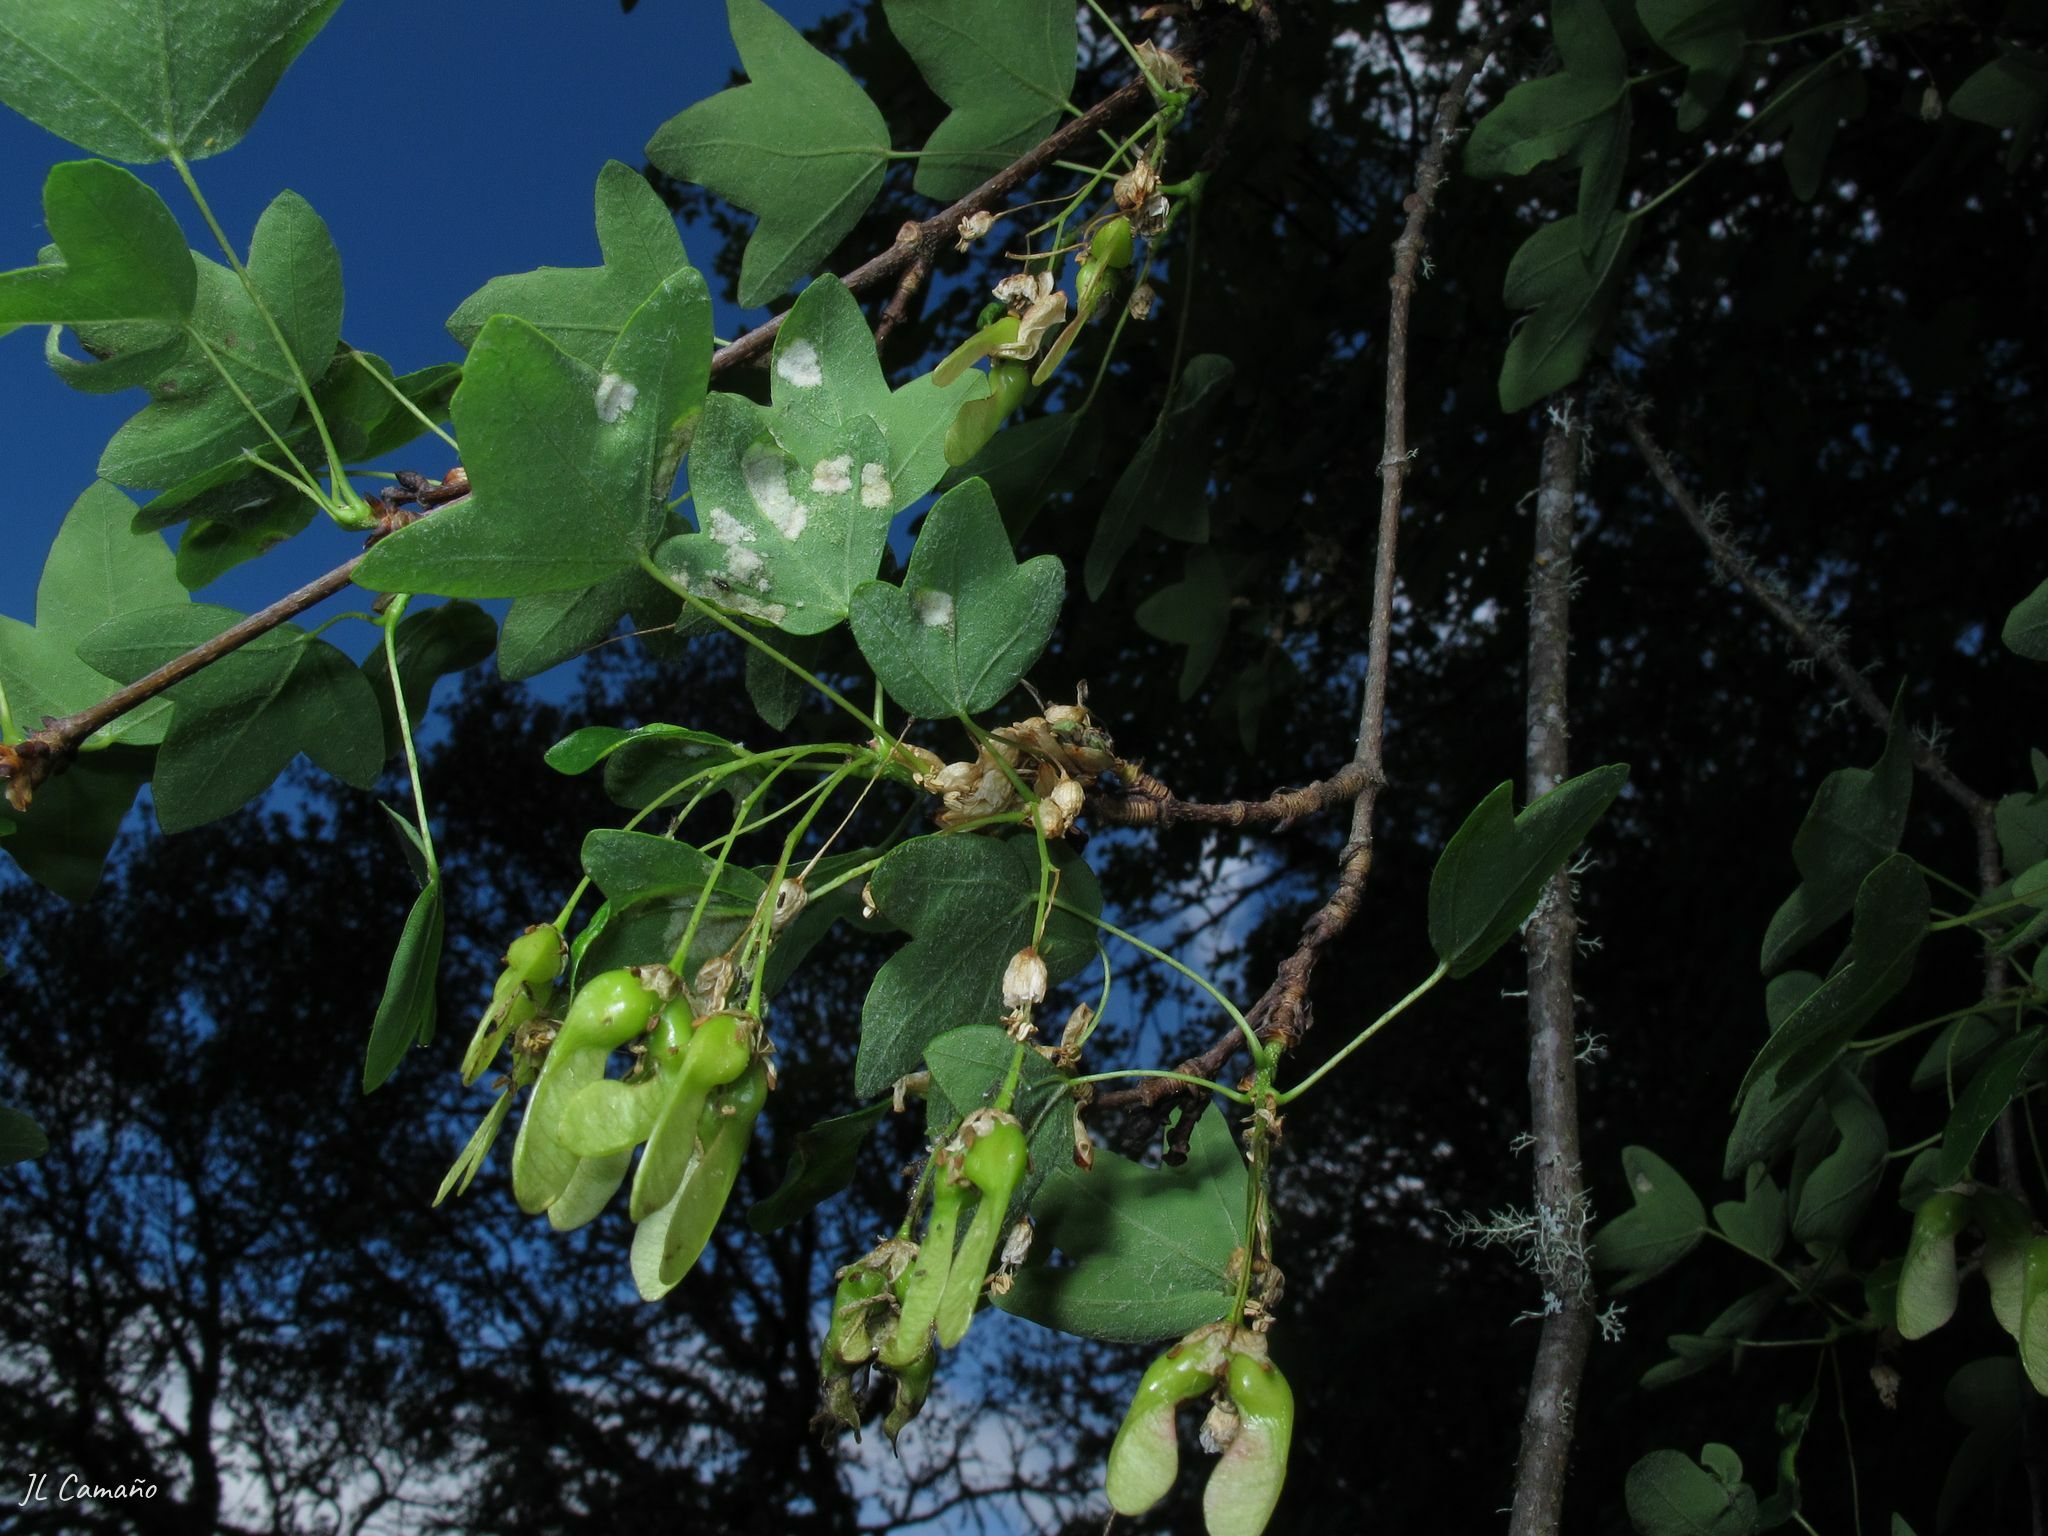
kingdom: Plantae
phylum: Tracheophyta
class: Magnoliopsida
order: Sapindales
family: Sapindaceae
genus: Acer
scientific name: Acer monspessulanum
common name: Montpellier maple
